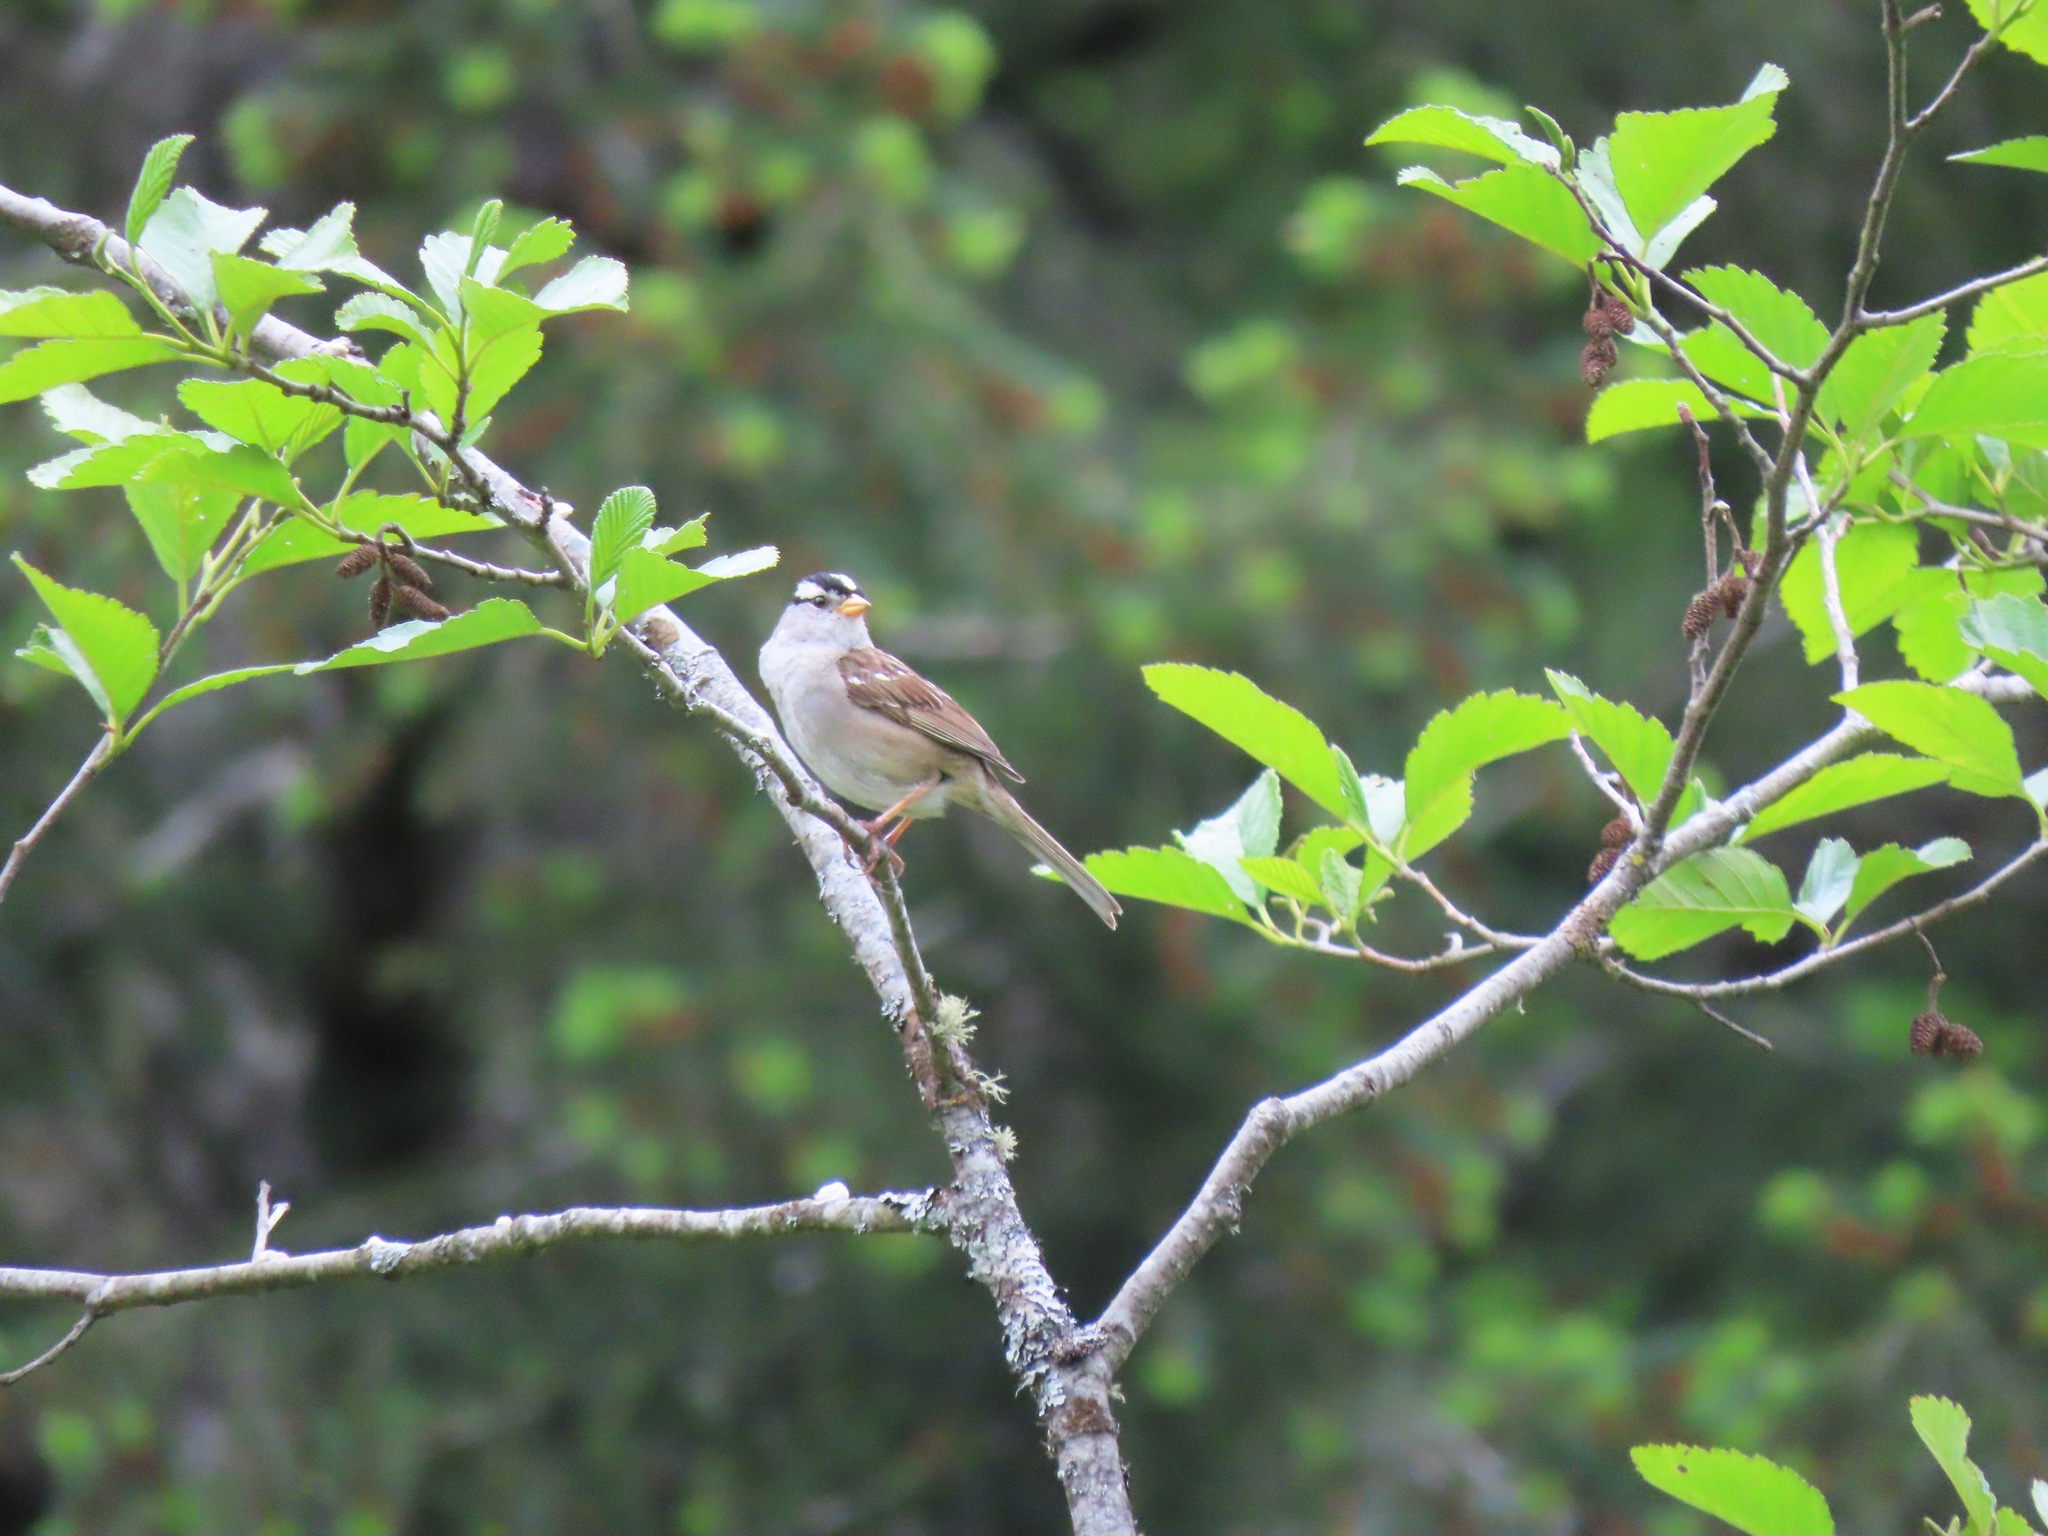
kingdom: Animalia
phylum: Chordata
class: Aves
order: Passeriformes
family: Passerellidae
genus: Zonotrichia
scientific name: Zonotrichia leucophrys
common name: White-crowned sparrow
